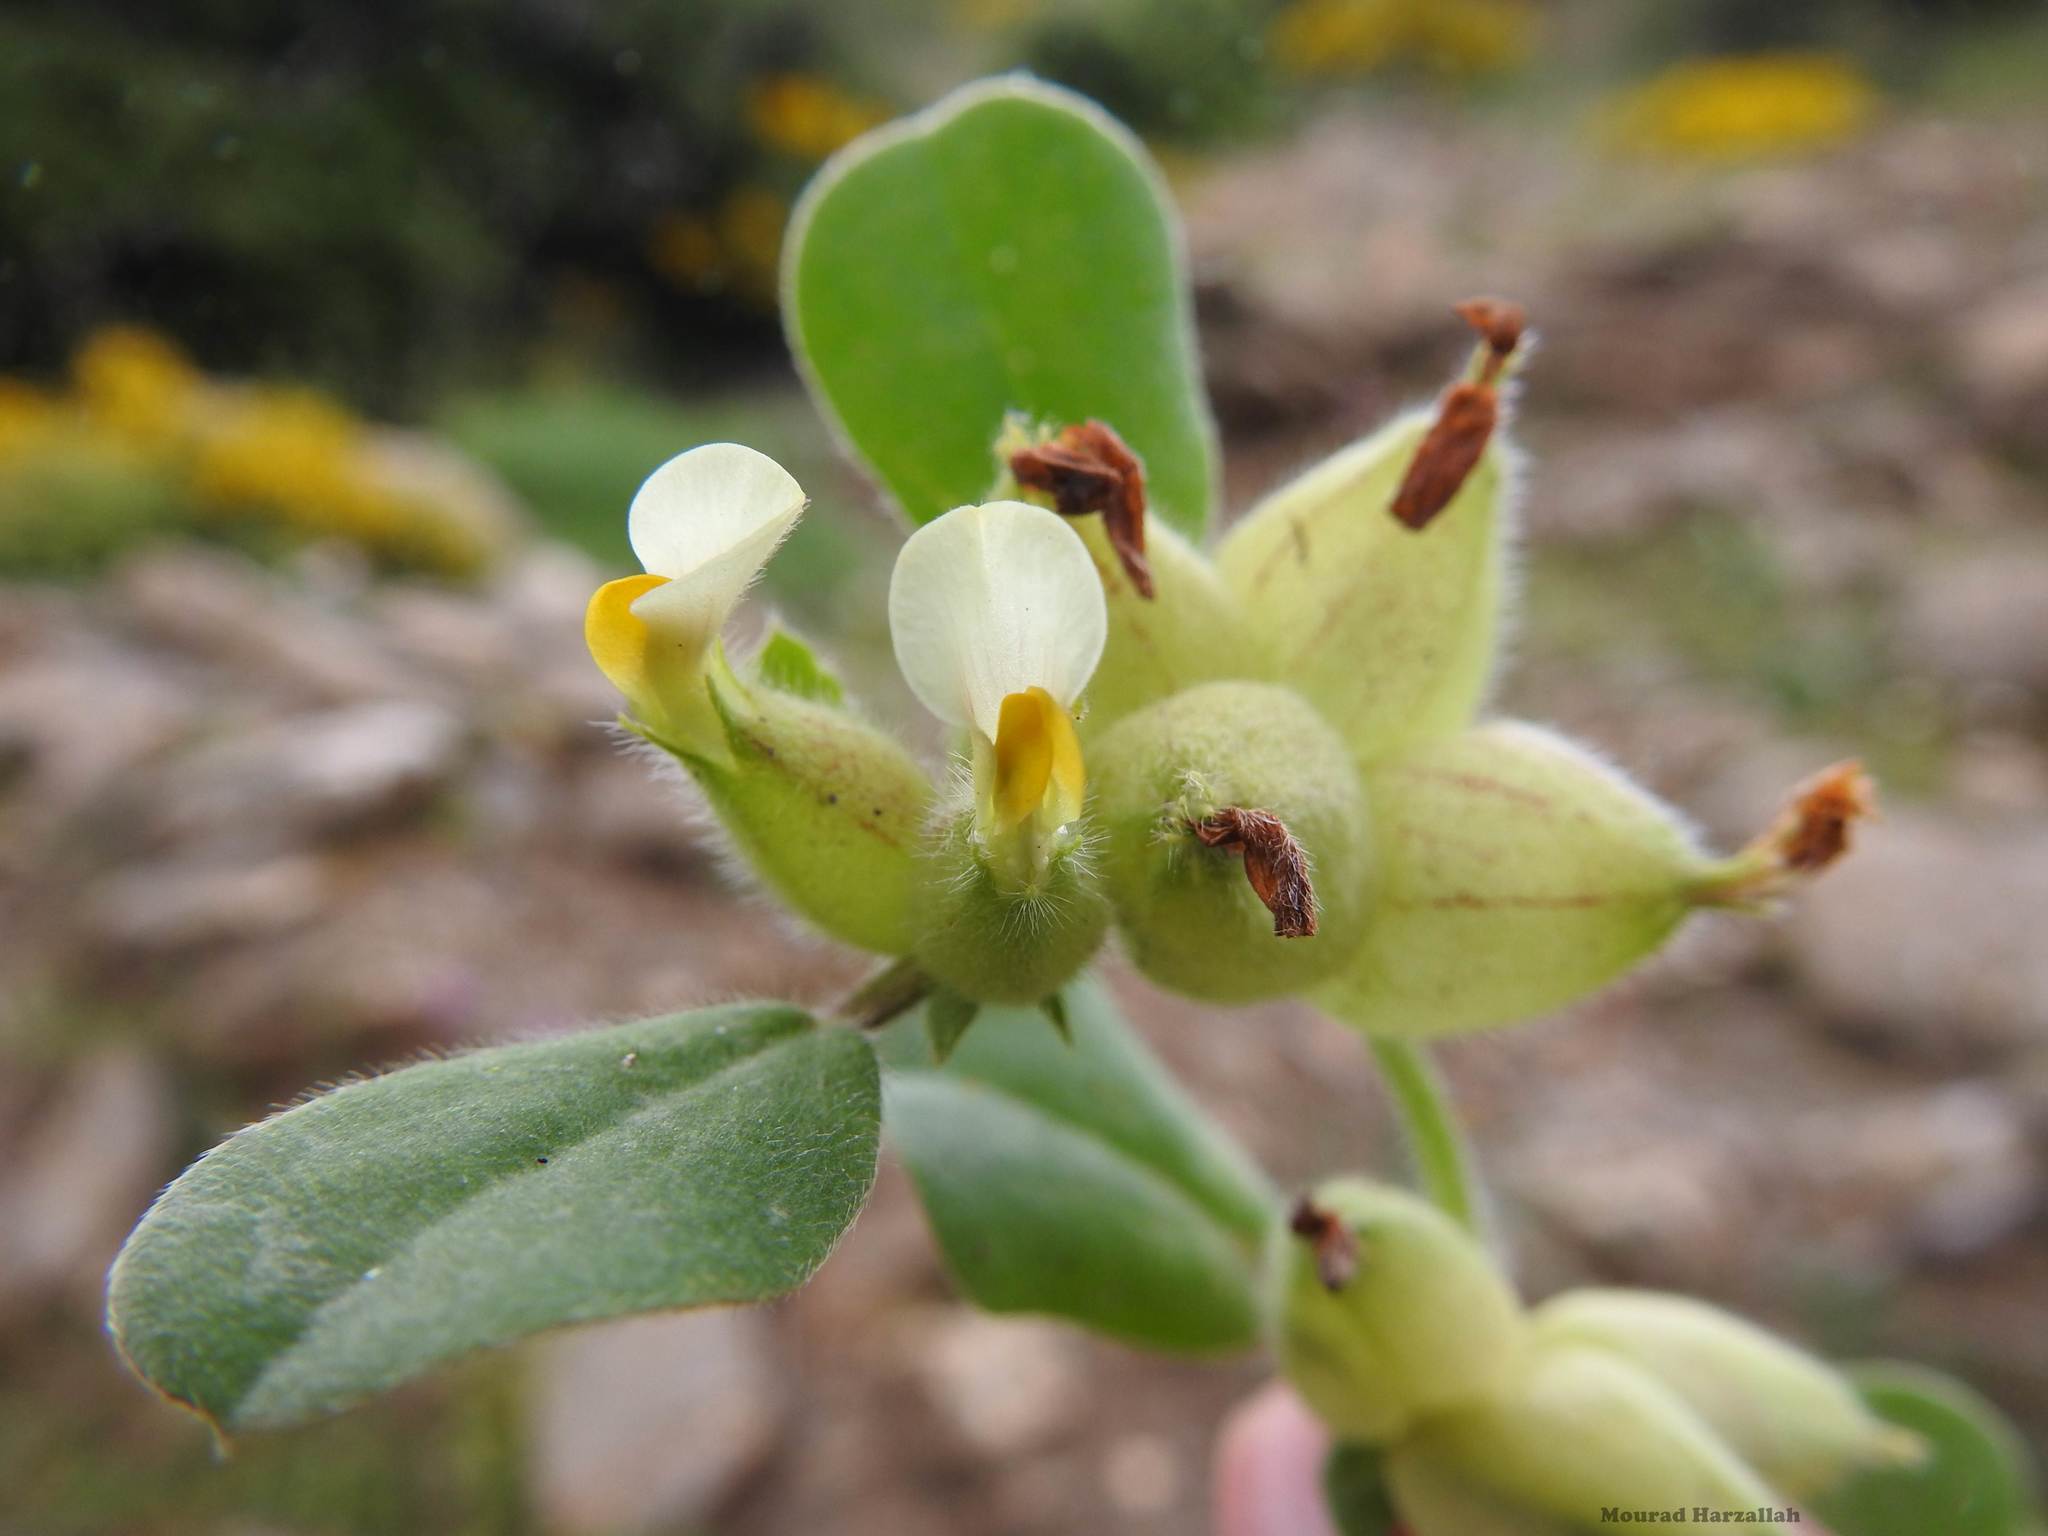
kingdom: Plantae
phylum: Tracheophyta
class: Magnoliopsida
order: Fabales
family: Fabaceae
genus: Tripodion
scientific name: Tripodion tetraphyllum
